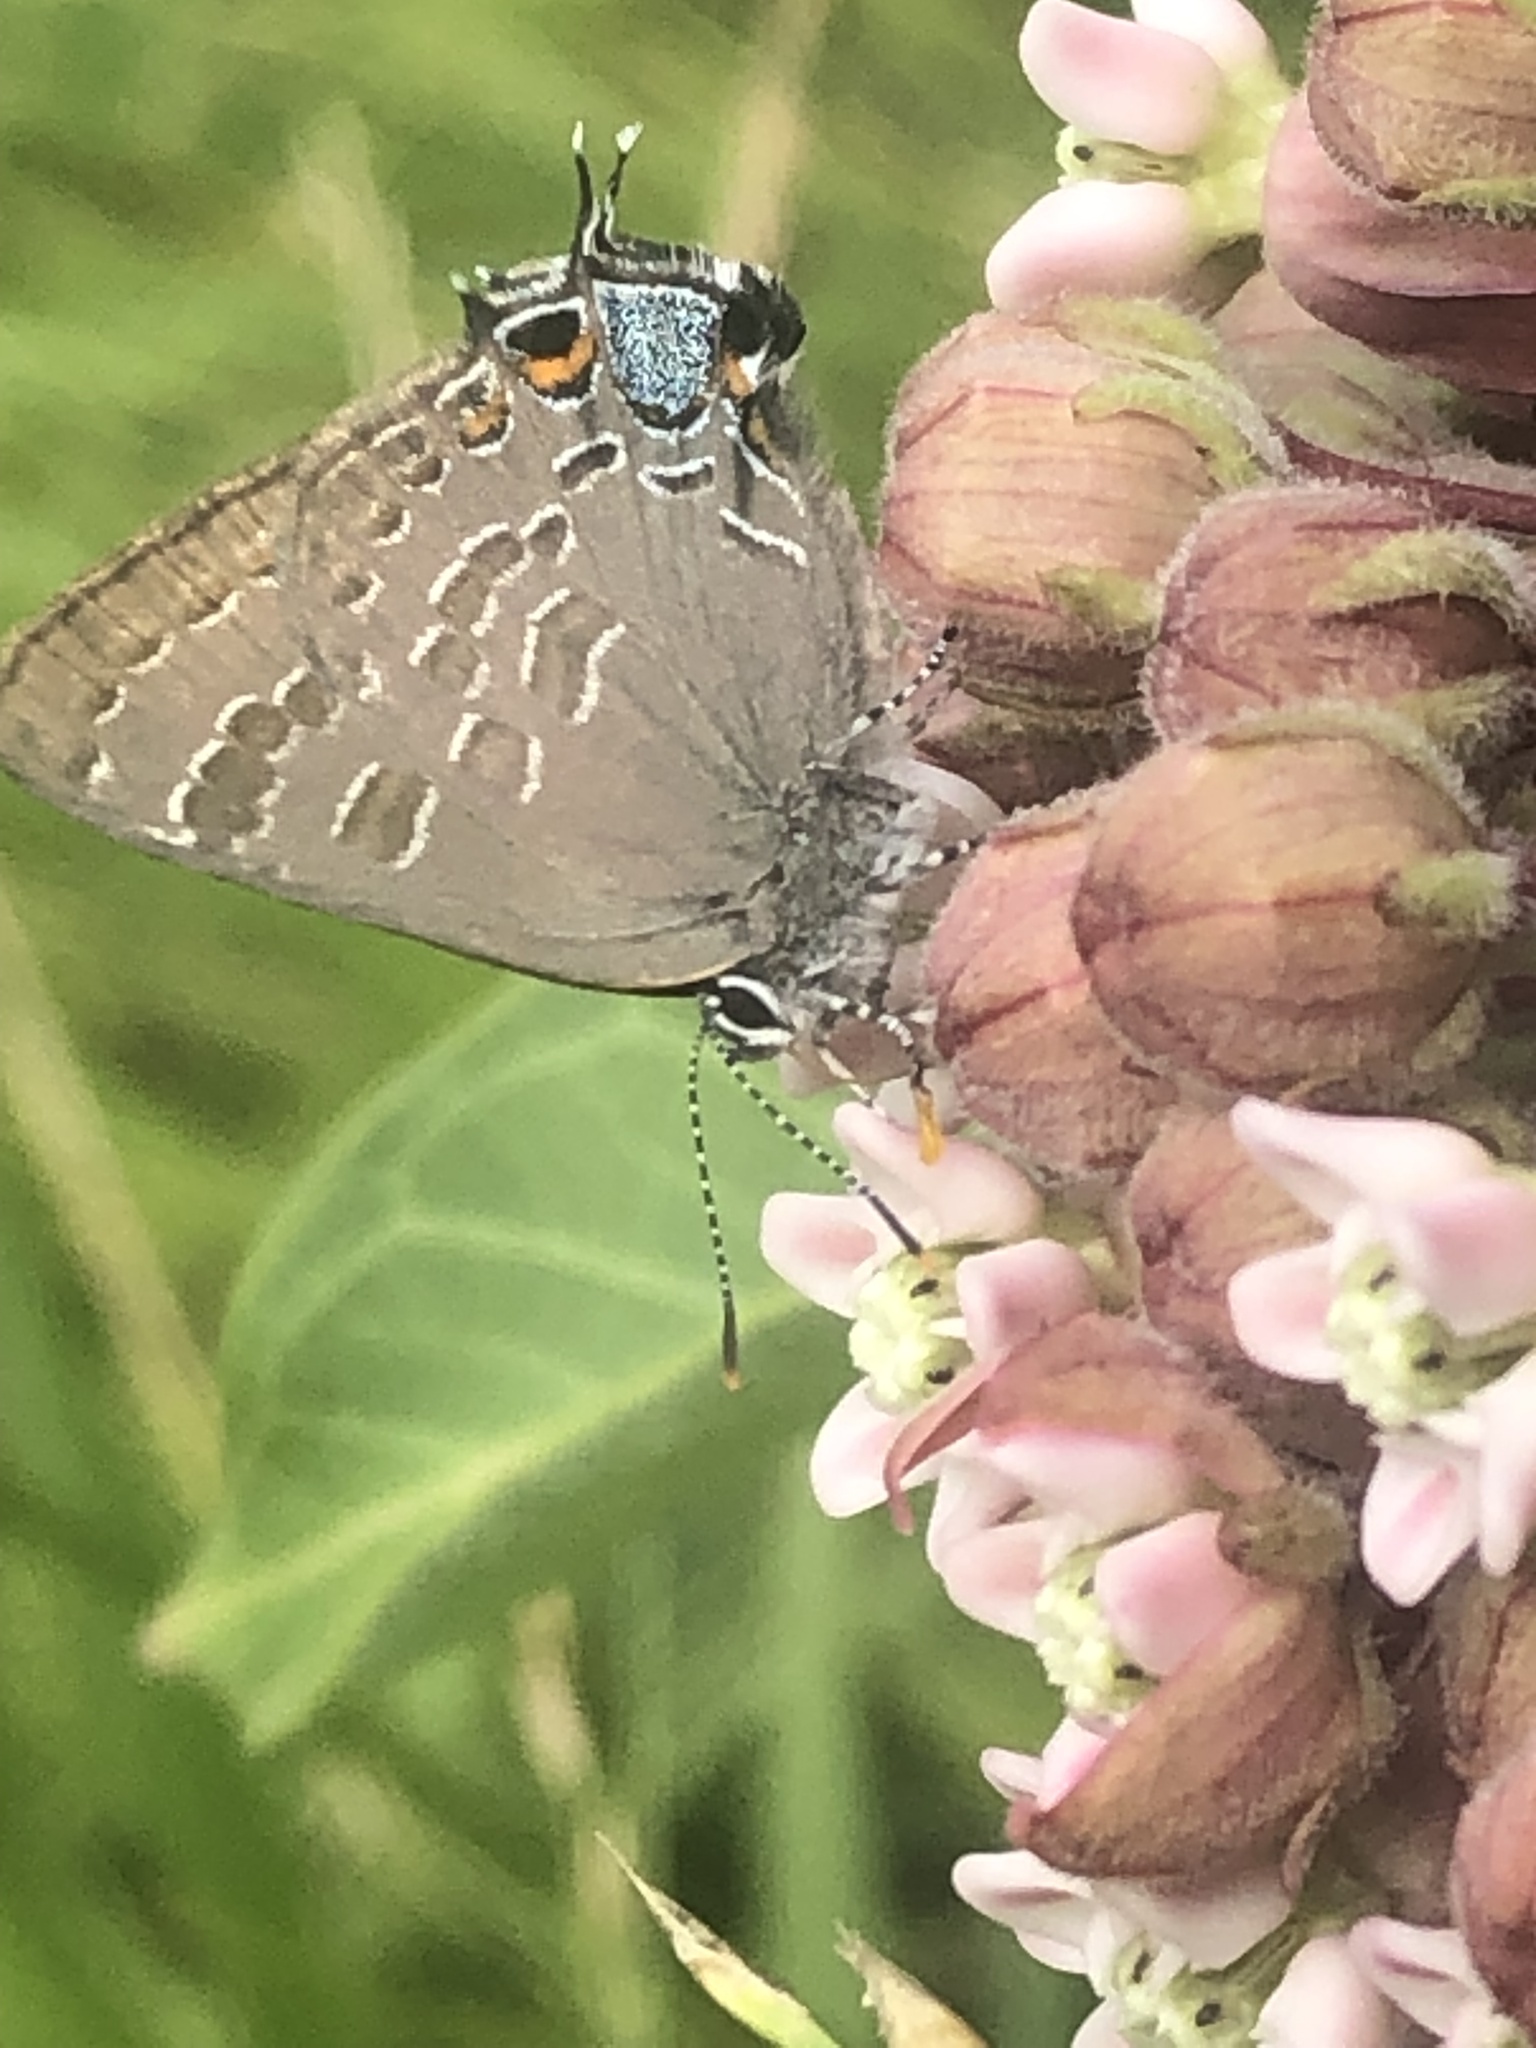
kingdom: Animalia
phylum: Arthropoda
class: Insecta
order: Lepidoptera
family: Lycaenidae
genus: Strymon
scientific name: Strymon caryaevorus
